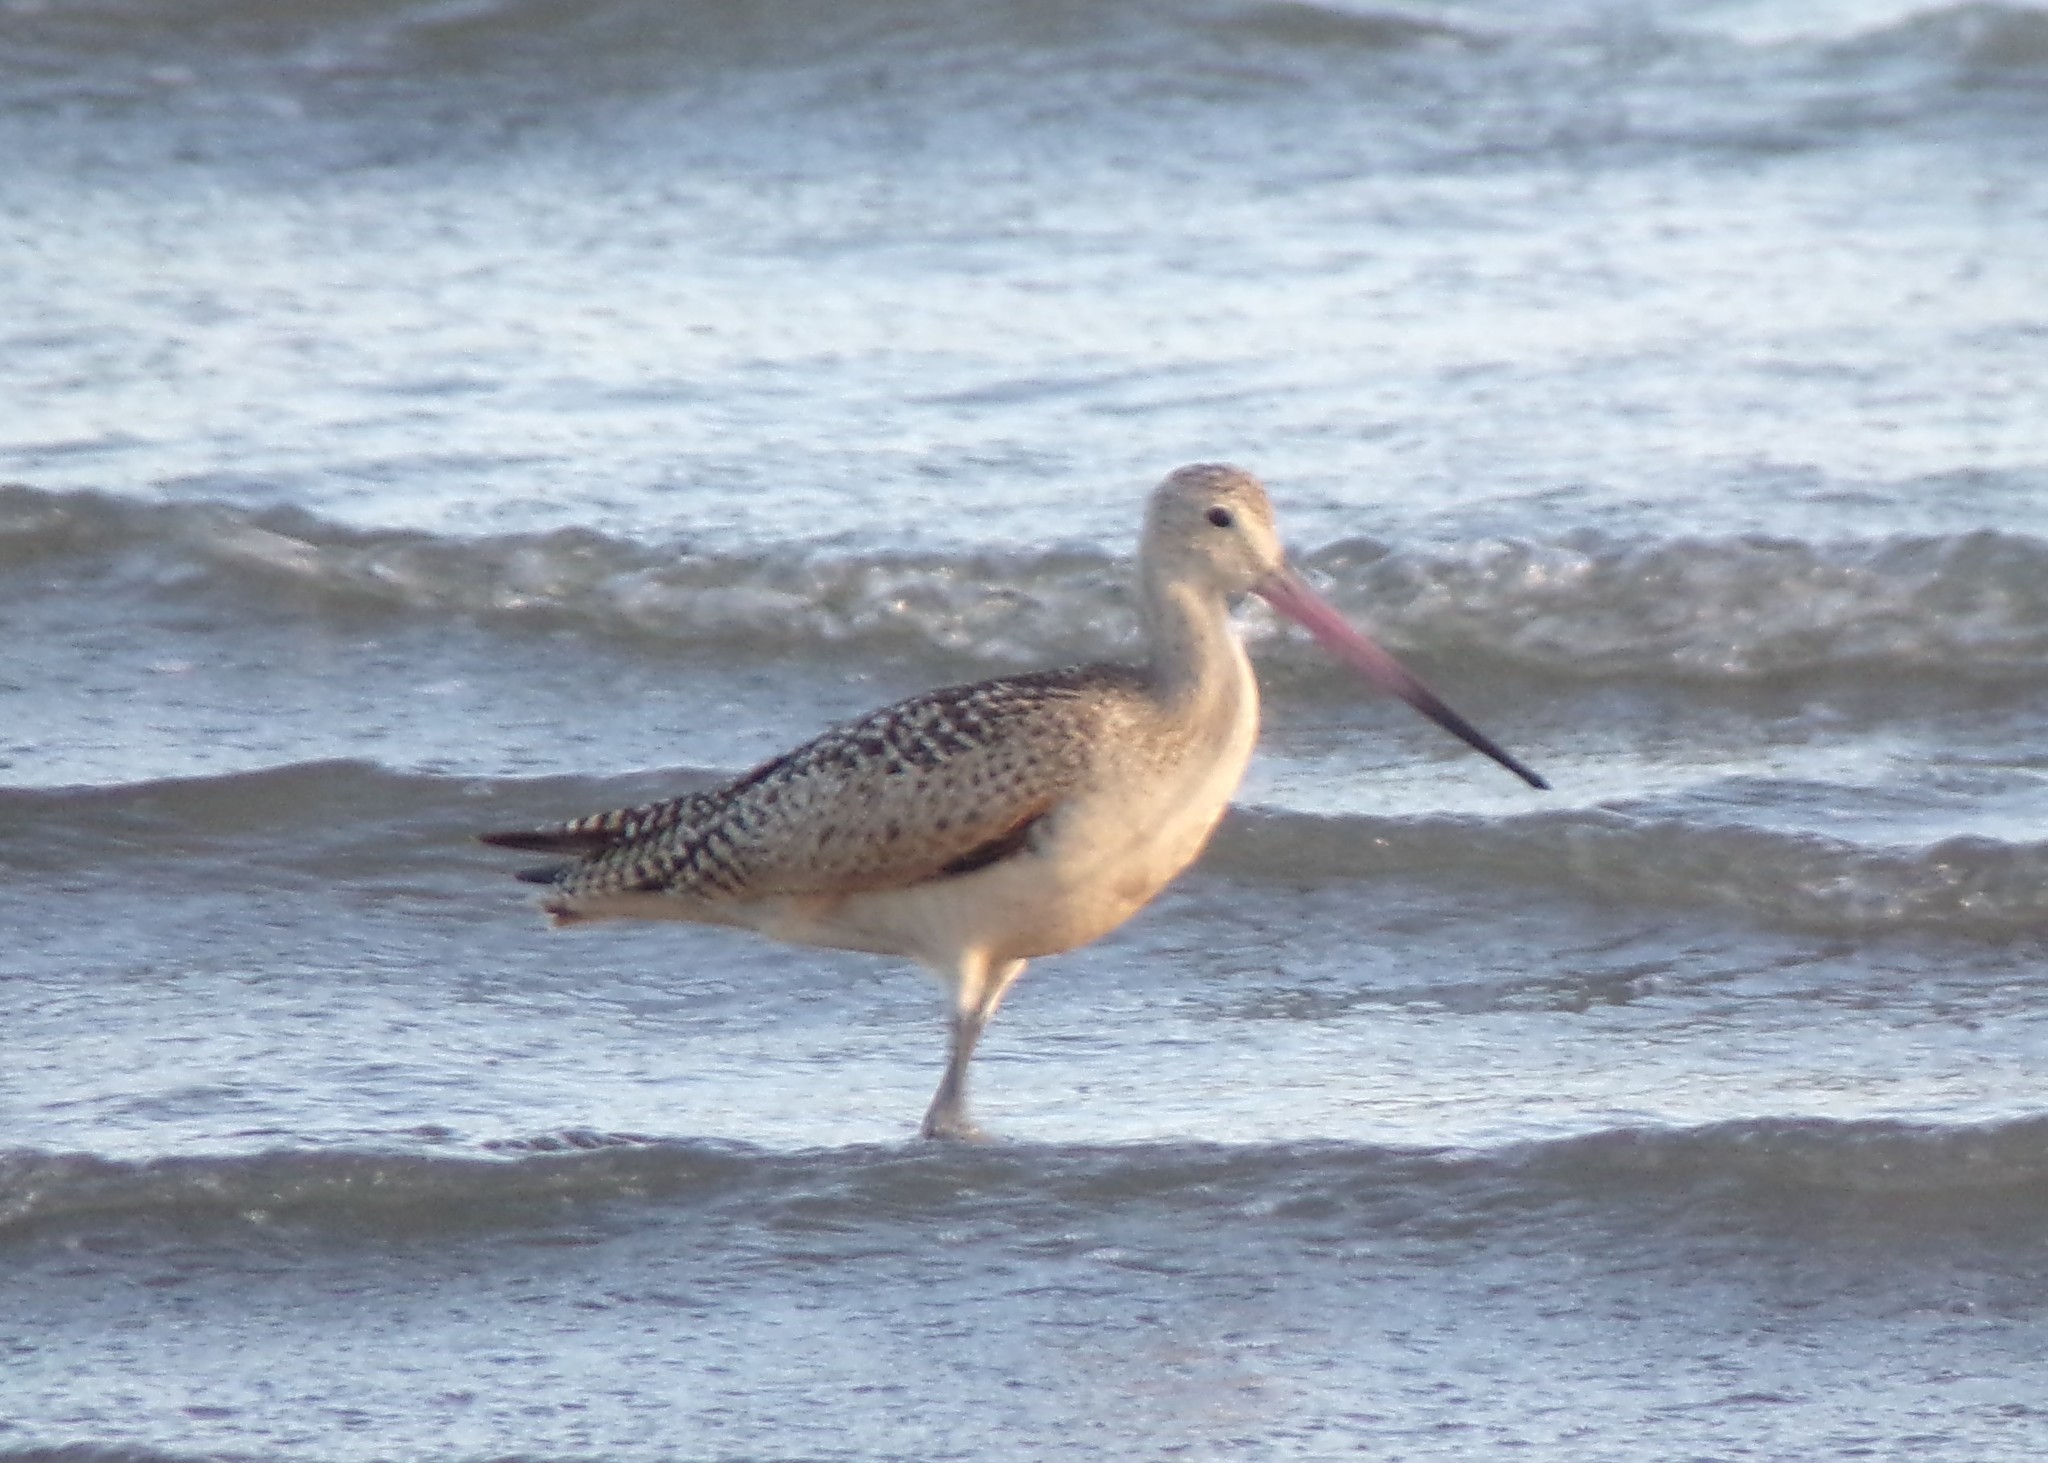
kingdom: Animalia
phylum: Chordata
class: Aves
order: Charadriiformes
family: Scolopacidae
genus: Limosa
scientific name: Limosa fedoa
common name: Marbled godwit
